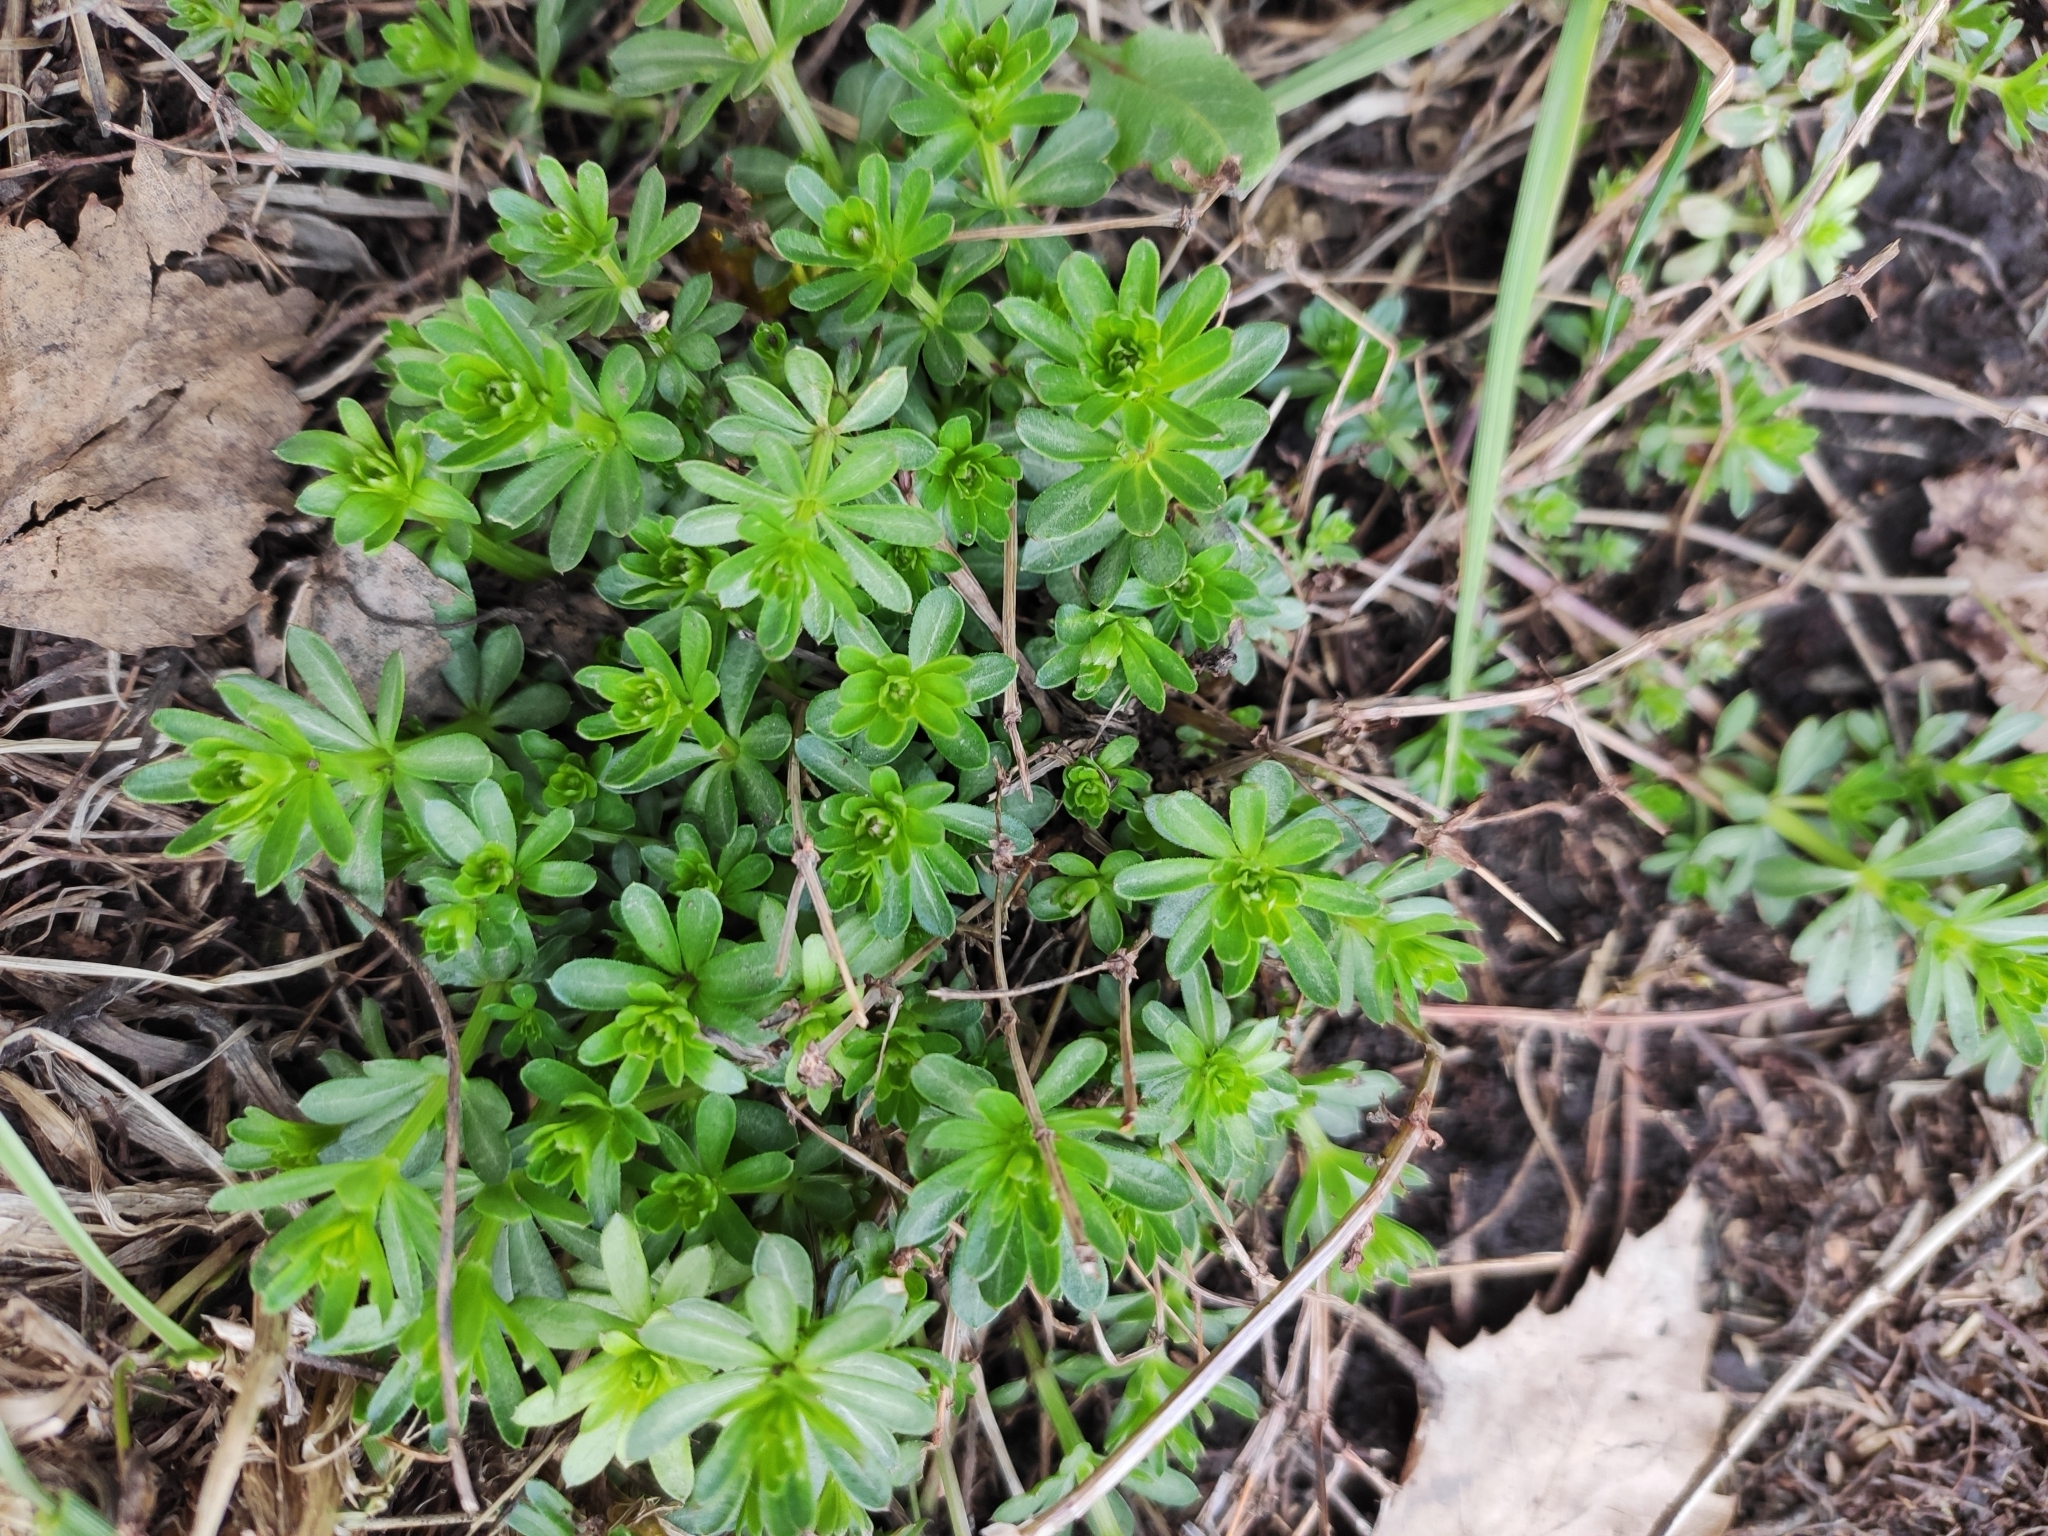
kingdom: Plantae
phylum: Tracheophyta
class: Magnoliopsida
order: Gentianales
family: Rubiaceae
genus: Galium
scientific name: Galium mollugo
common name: Hedge bedstraw
